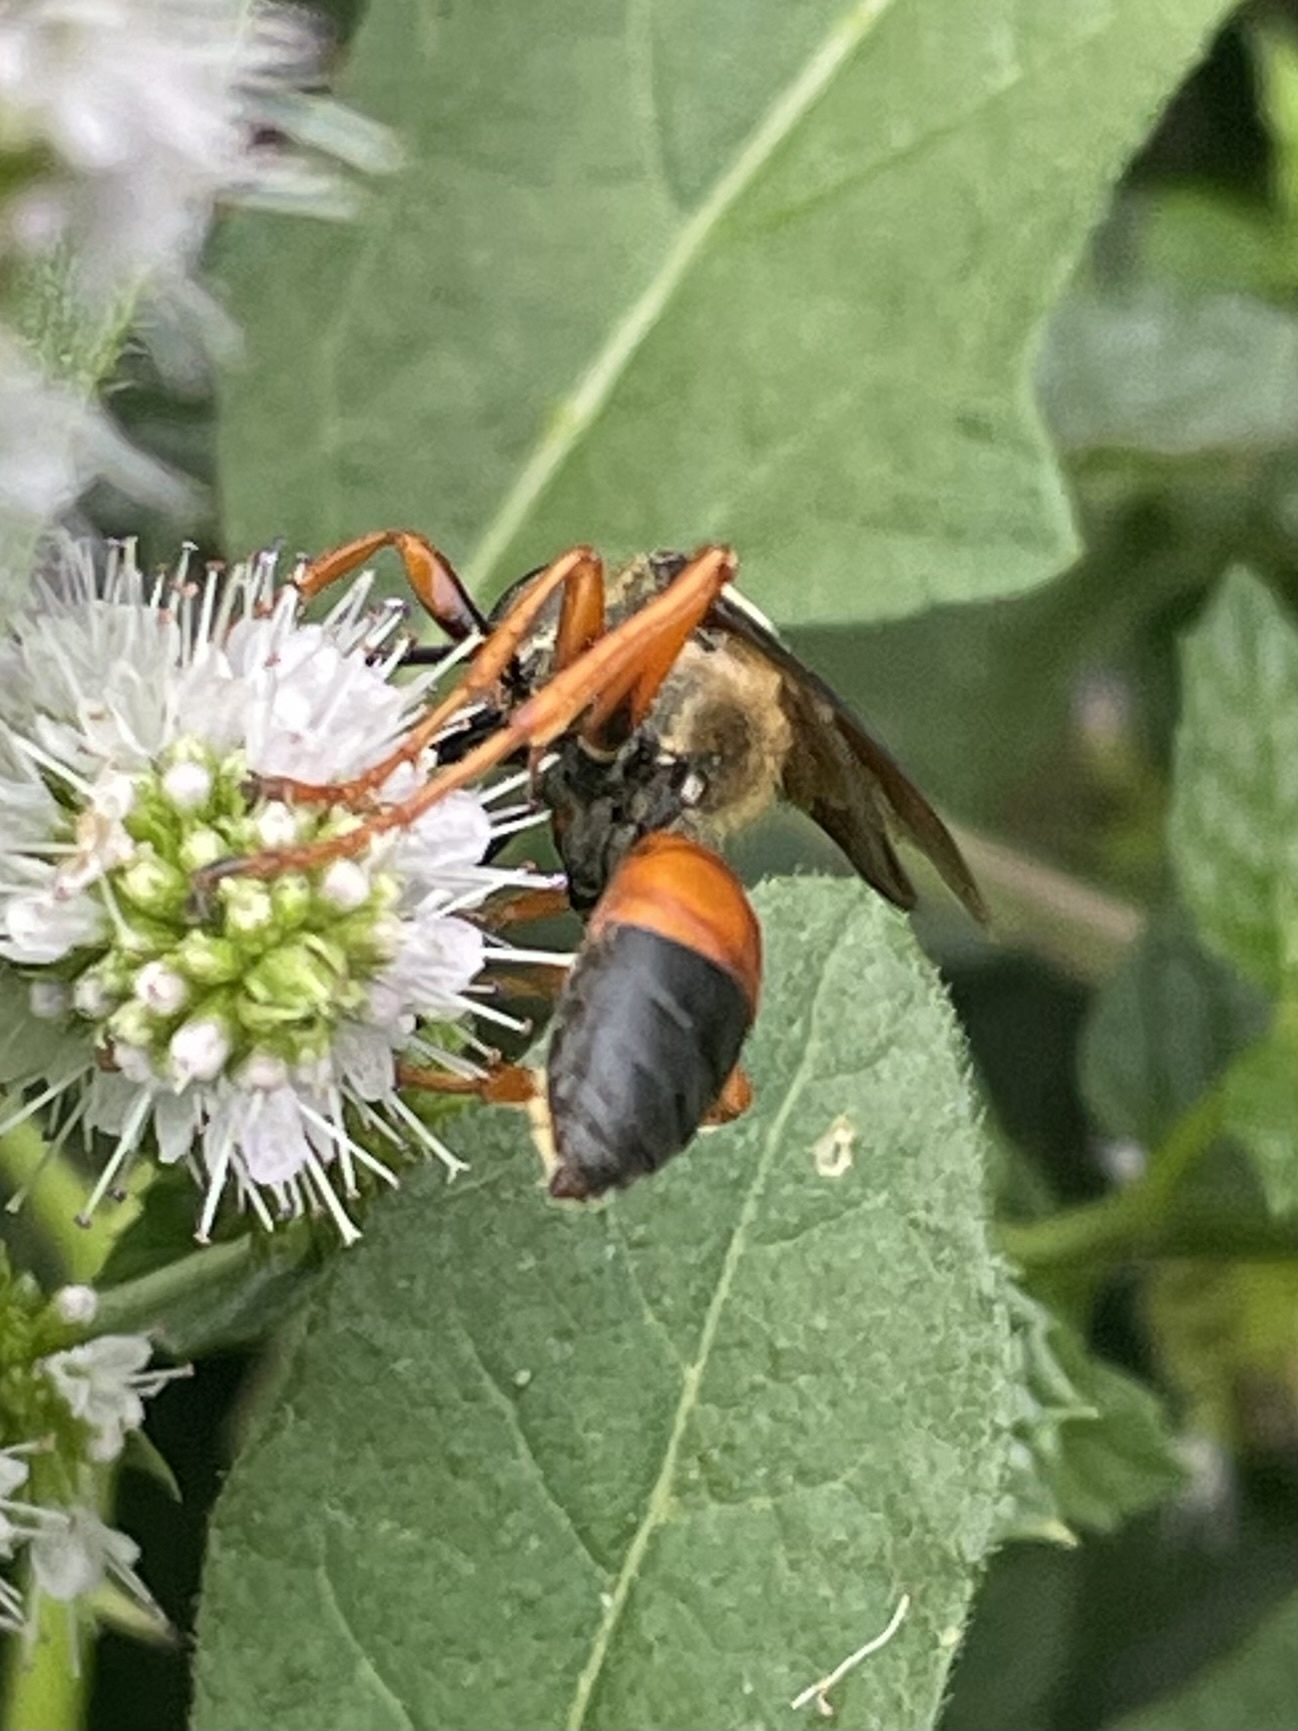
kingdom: Animalia
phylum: Arthropoda
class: Insecta
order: Hymenoptera
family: Sphecidae
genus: Sphex
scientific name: Sphex ichneumoneus
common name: Great golden digger wasp
